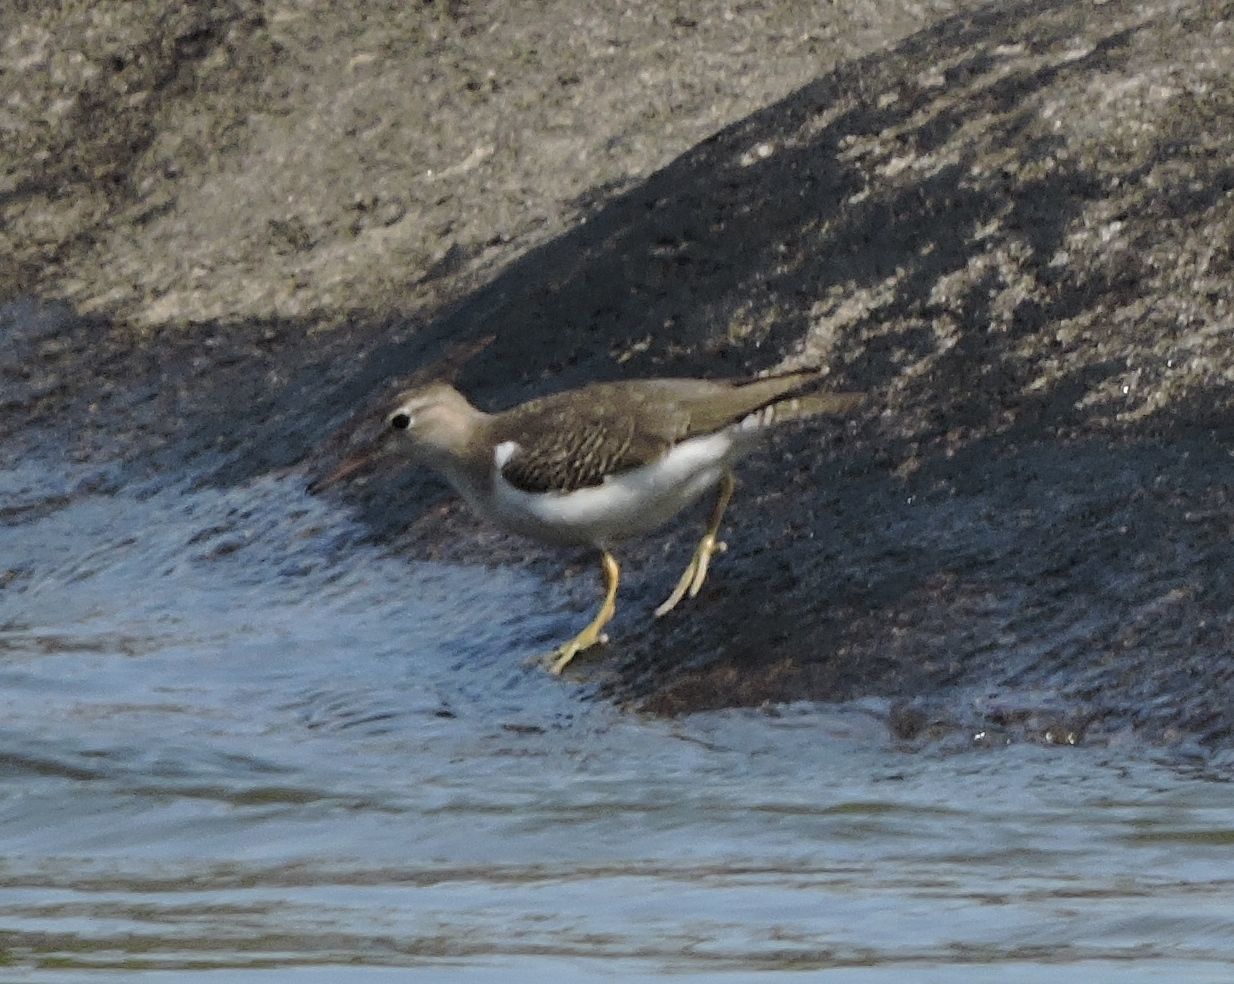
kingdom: Animalia
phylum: Chordata
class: Aves
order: Charadriiformes
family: Scolopacidae
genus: Actitis
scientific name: Actitis macularius
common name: Spotted sandpiper
